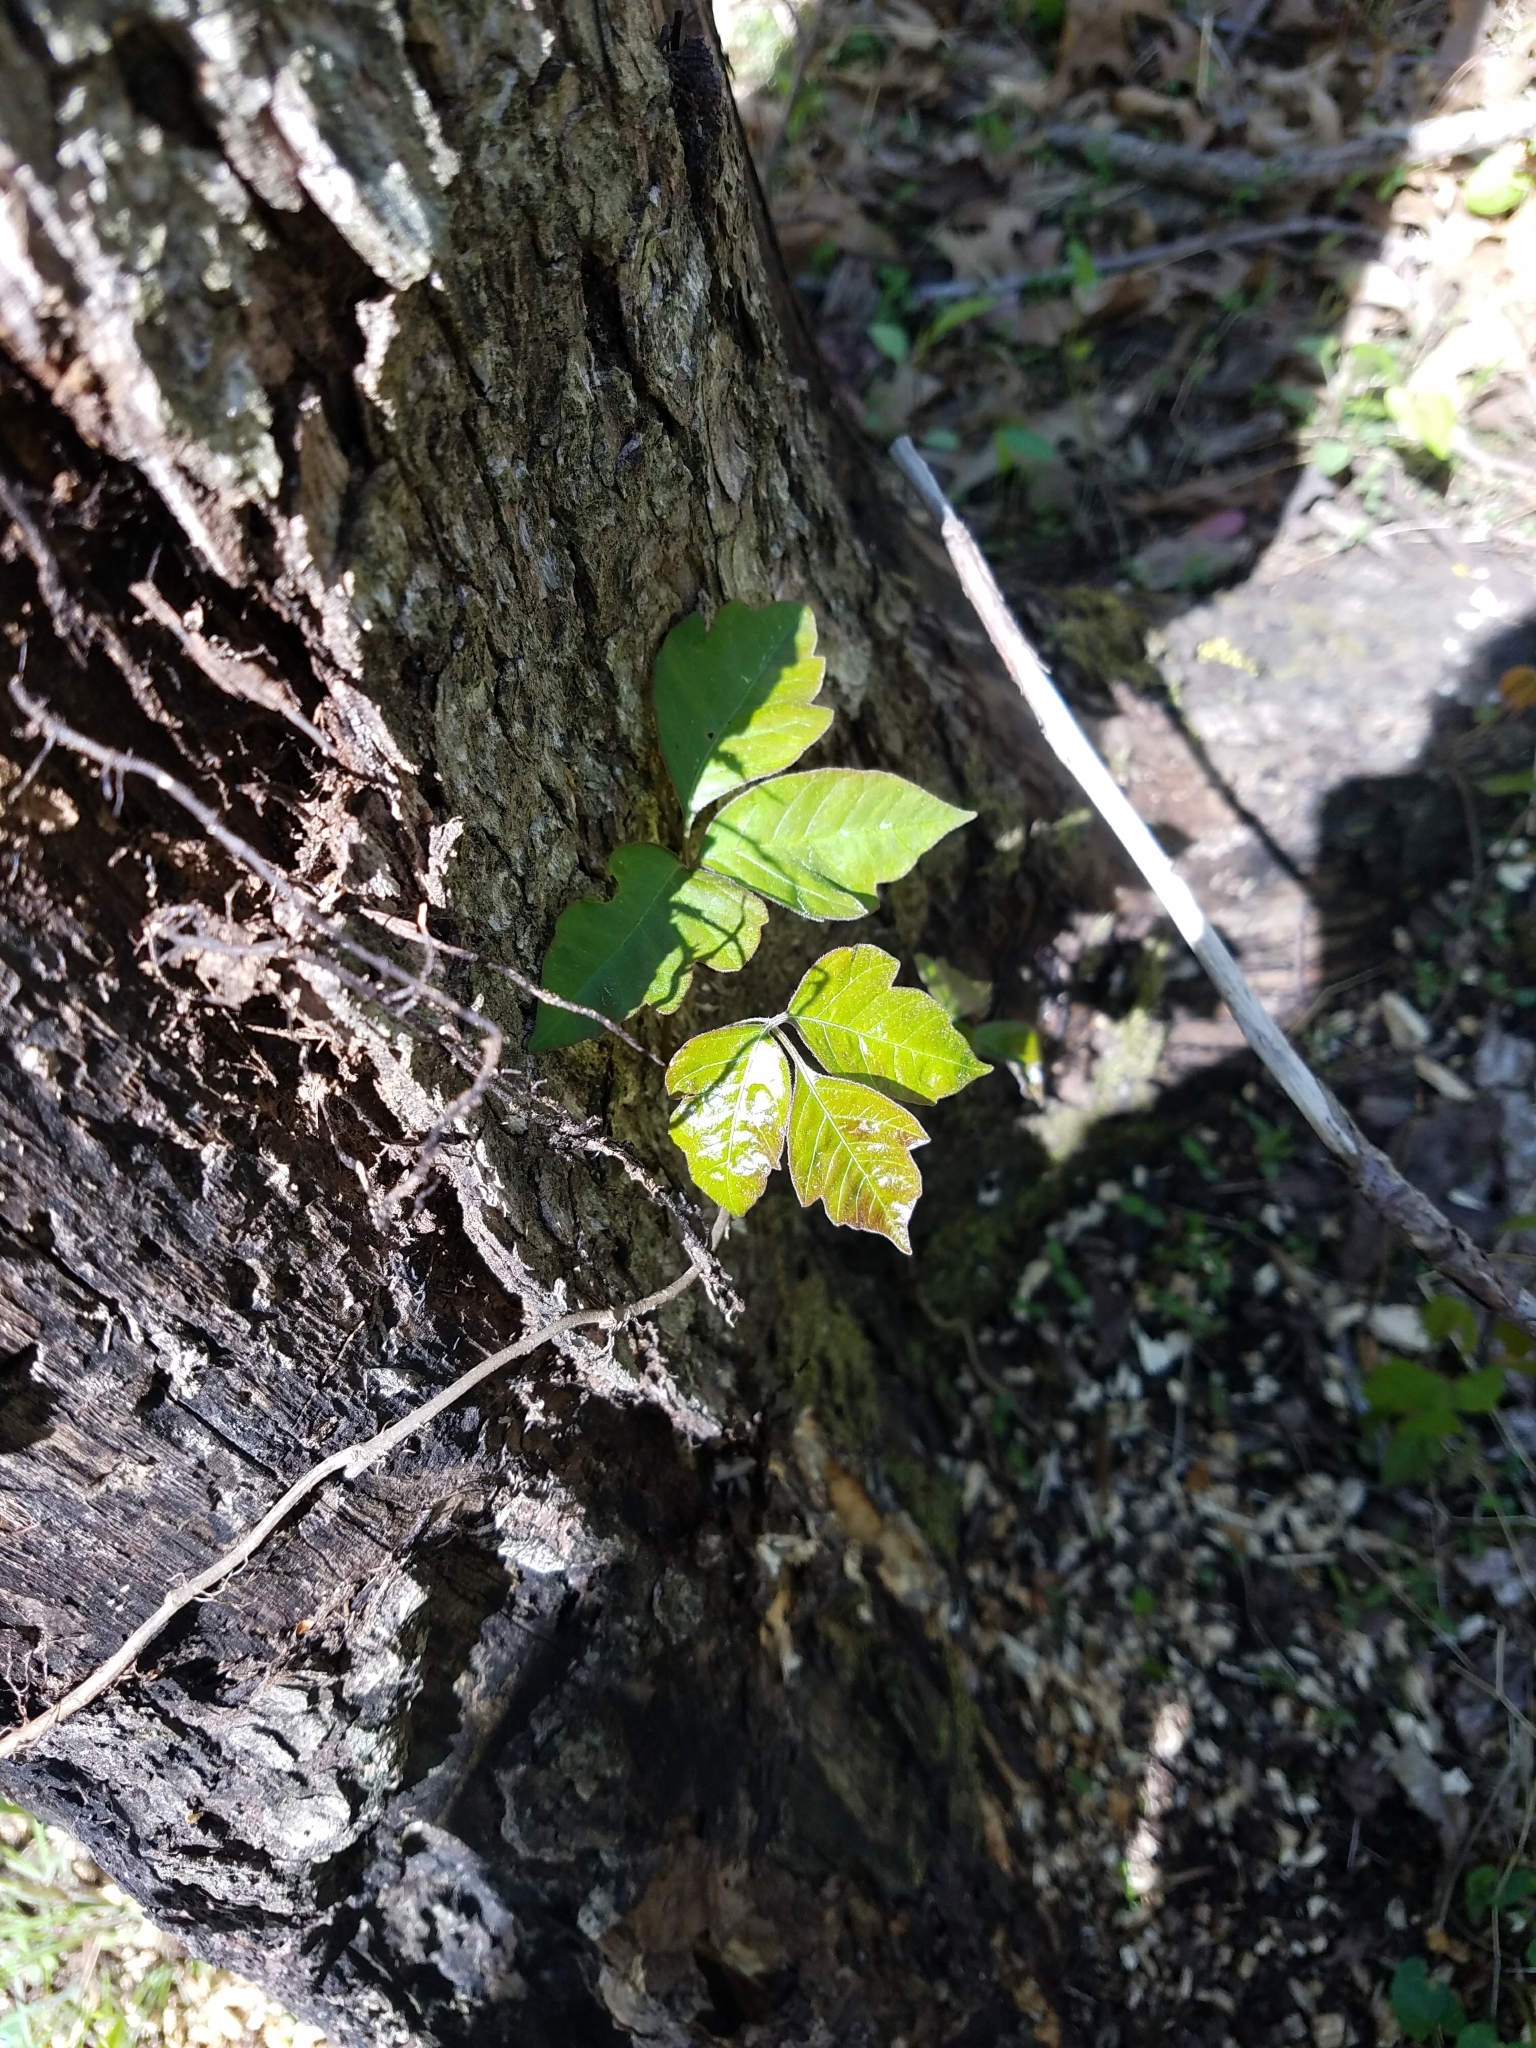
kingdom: Plantae
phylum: Tracheophyta
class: Magnoliopsida
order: Sapindales
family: Anacardiaceae
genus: Toxicodendron
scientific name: Toxicodendron radicans
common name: Poison ivy
